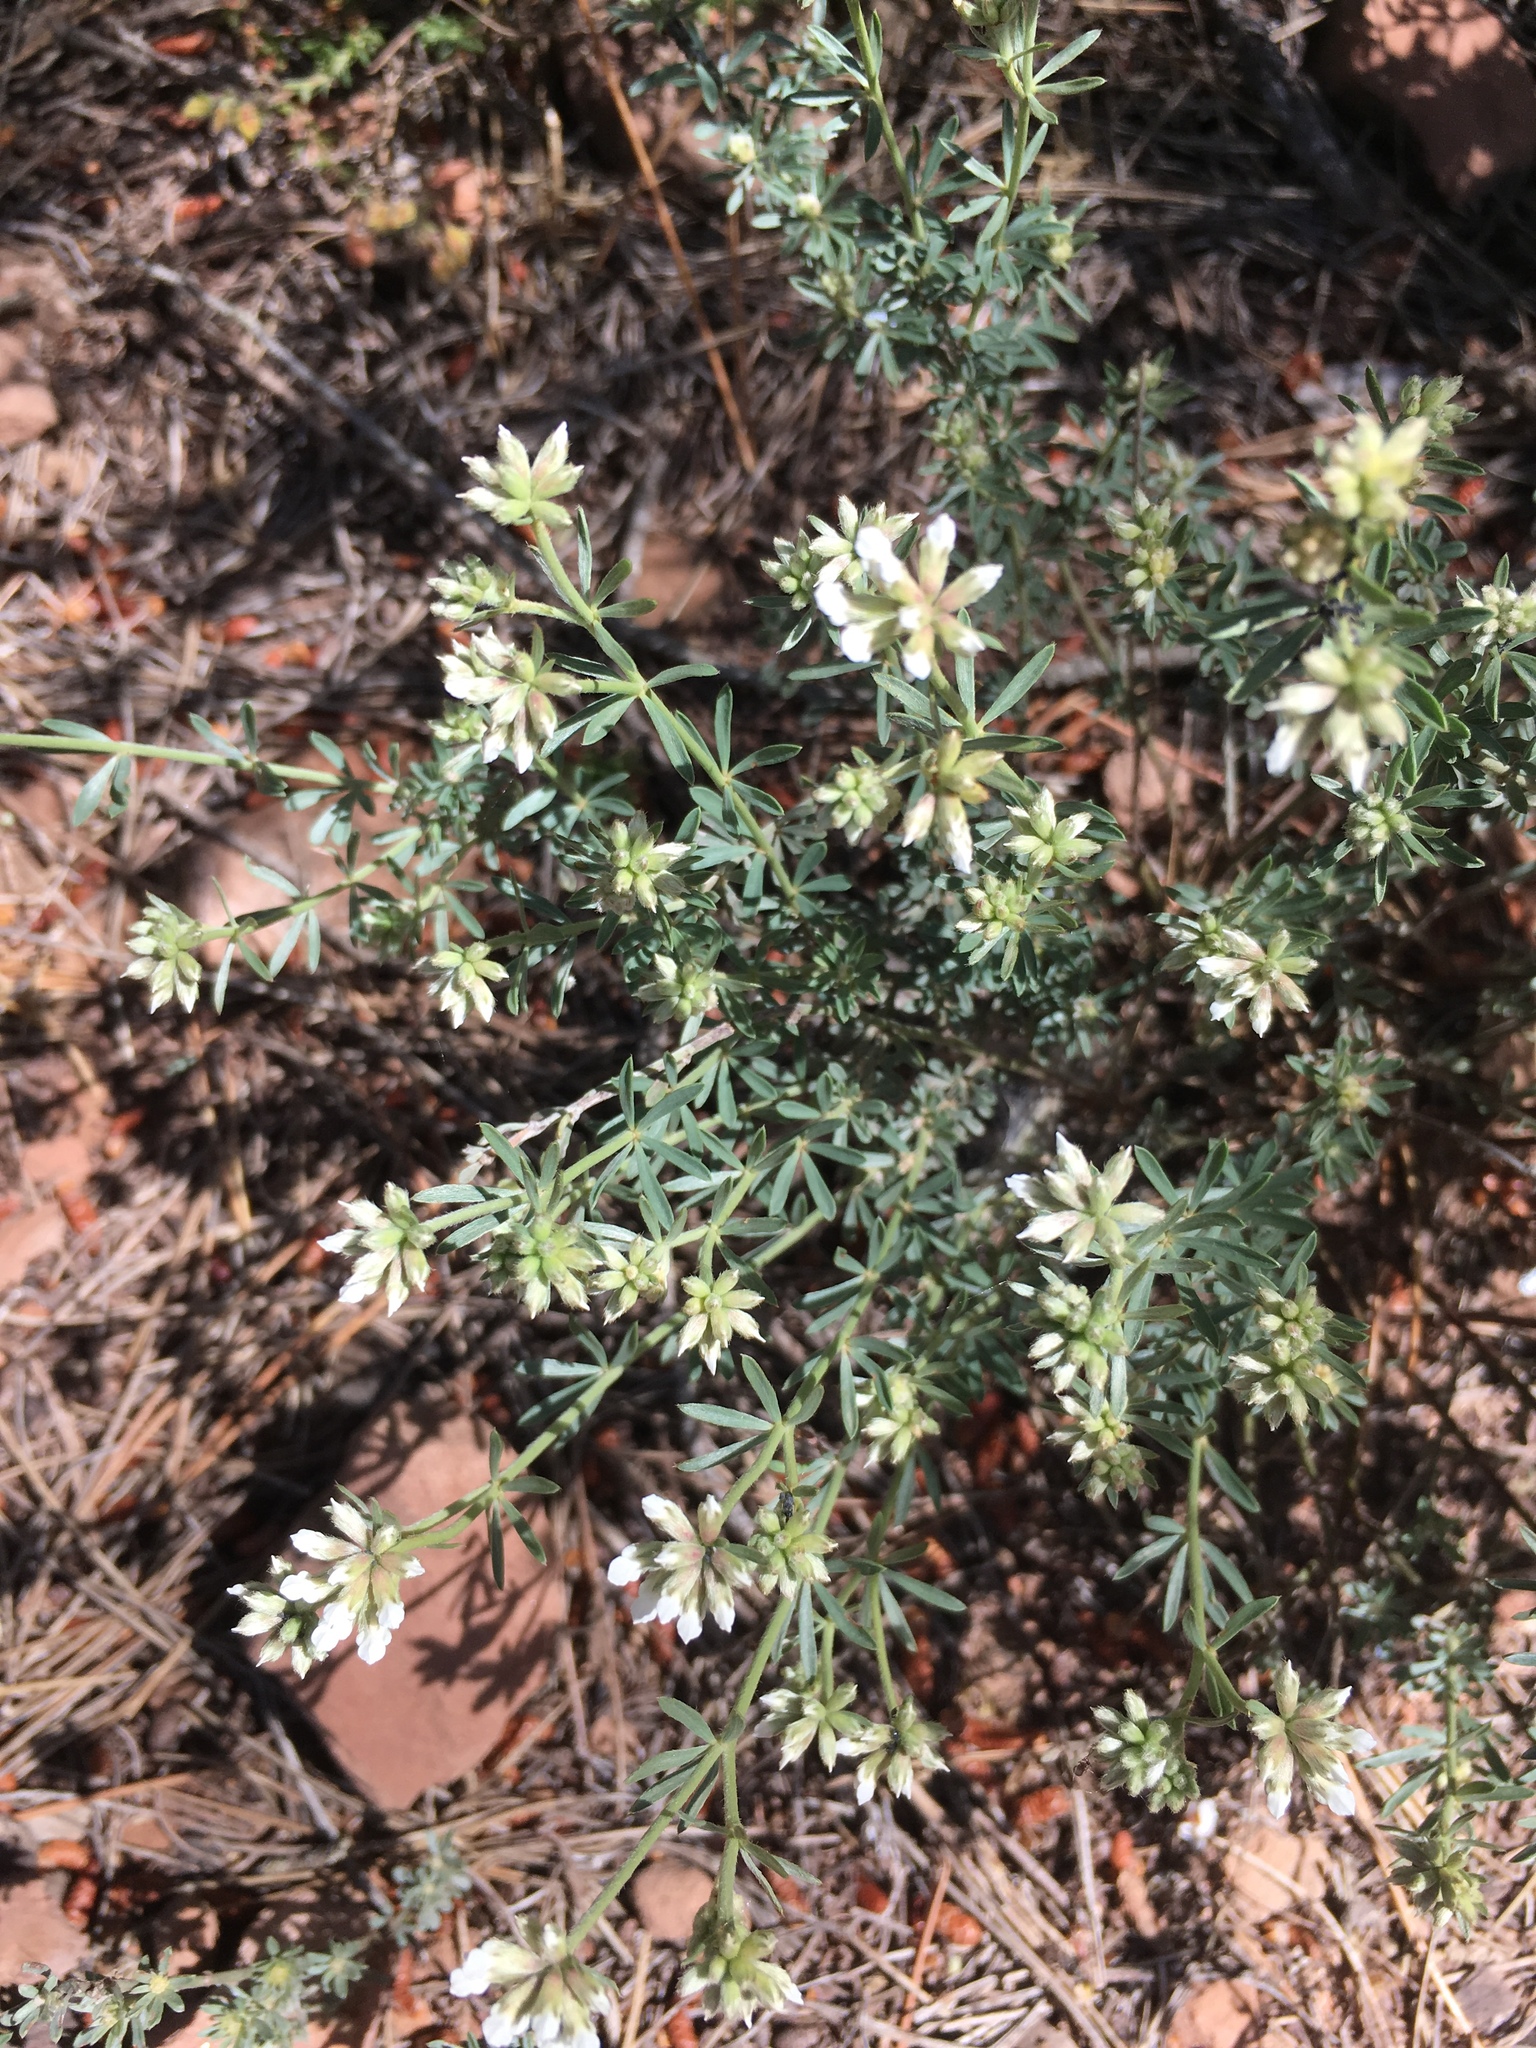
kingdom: Plantae
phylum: Tracheophyta
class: Magnoliopsida
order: Fabales
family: Fabaceae
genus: Lotus
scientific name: Lotus dorycnium
